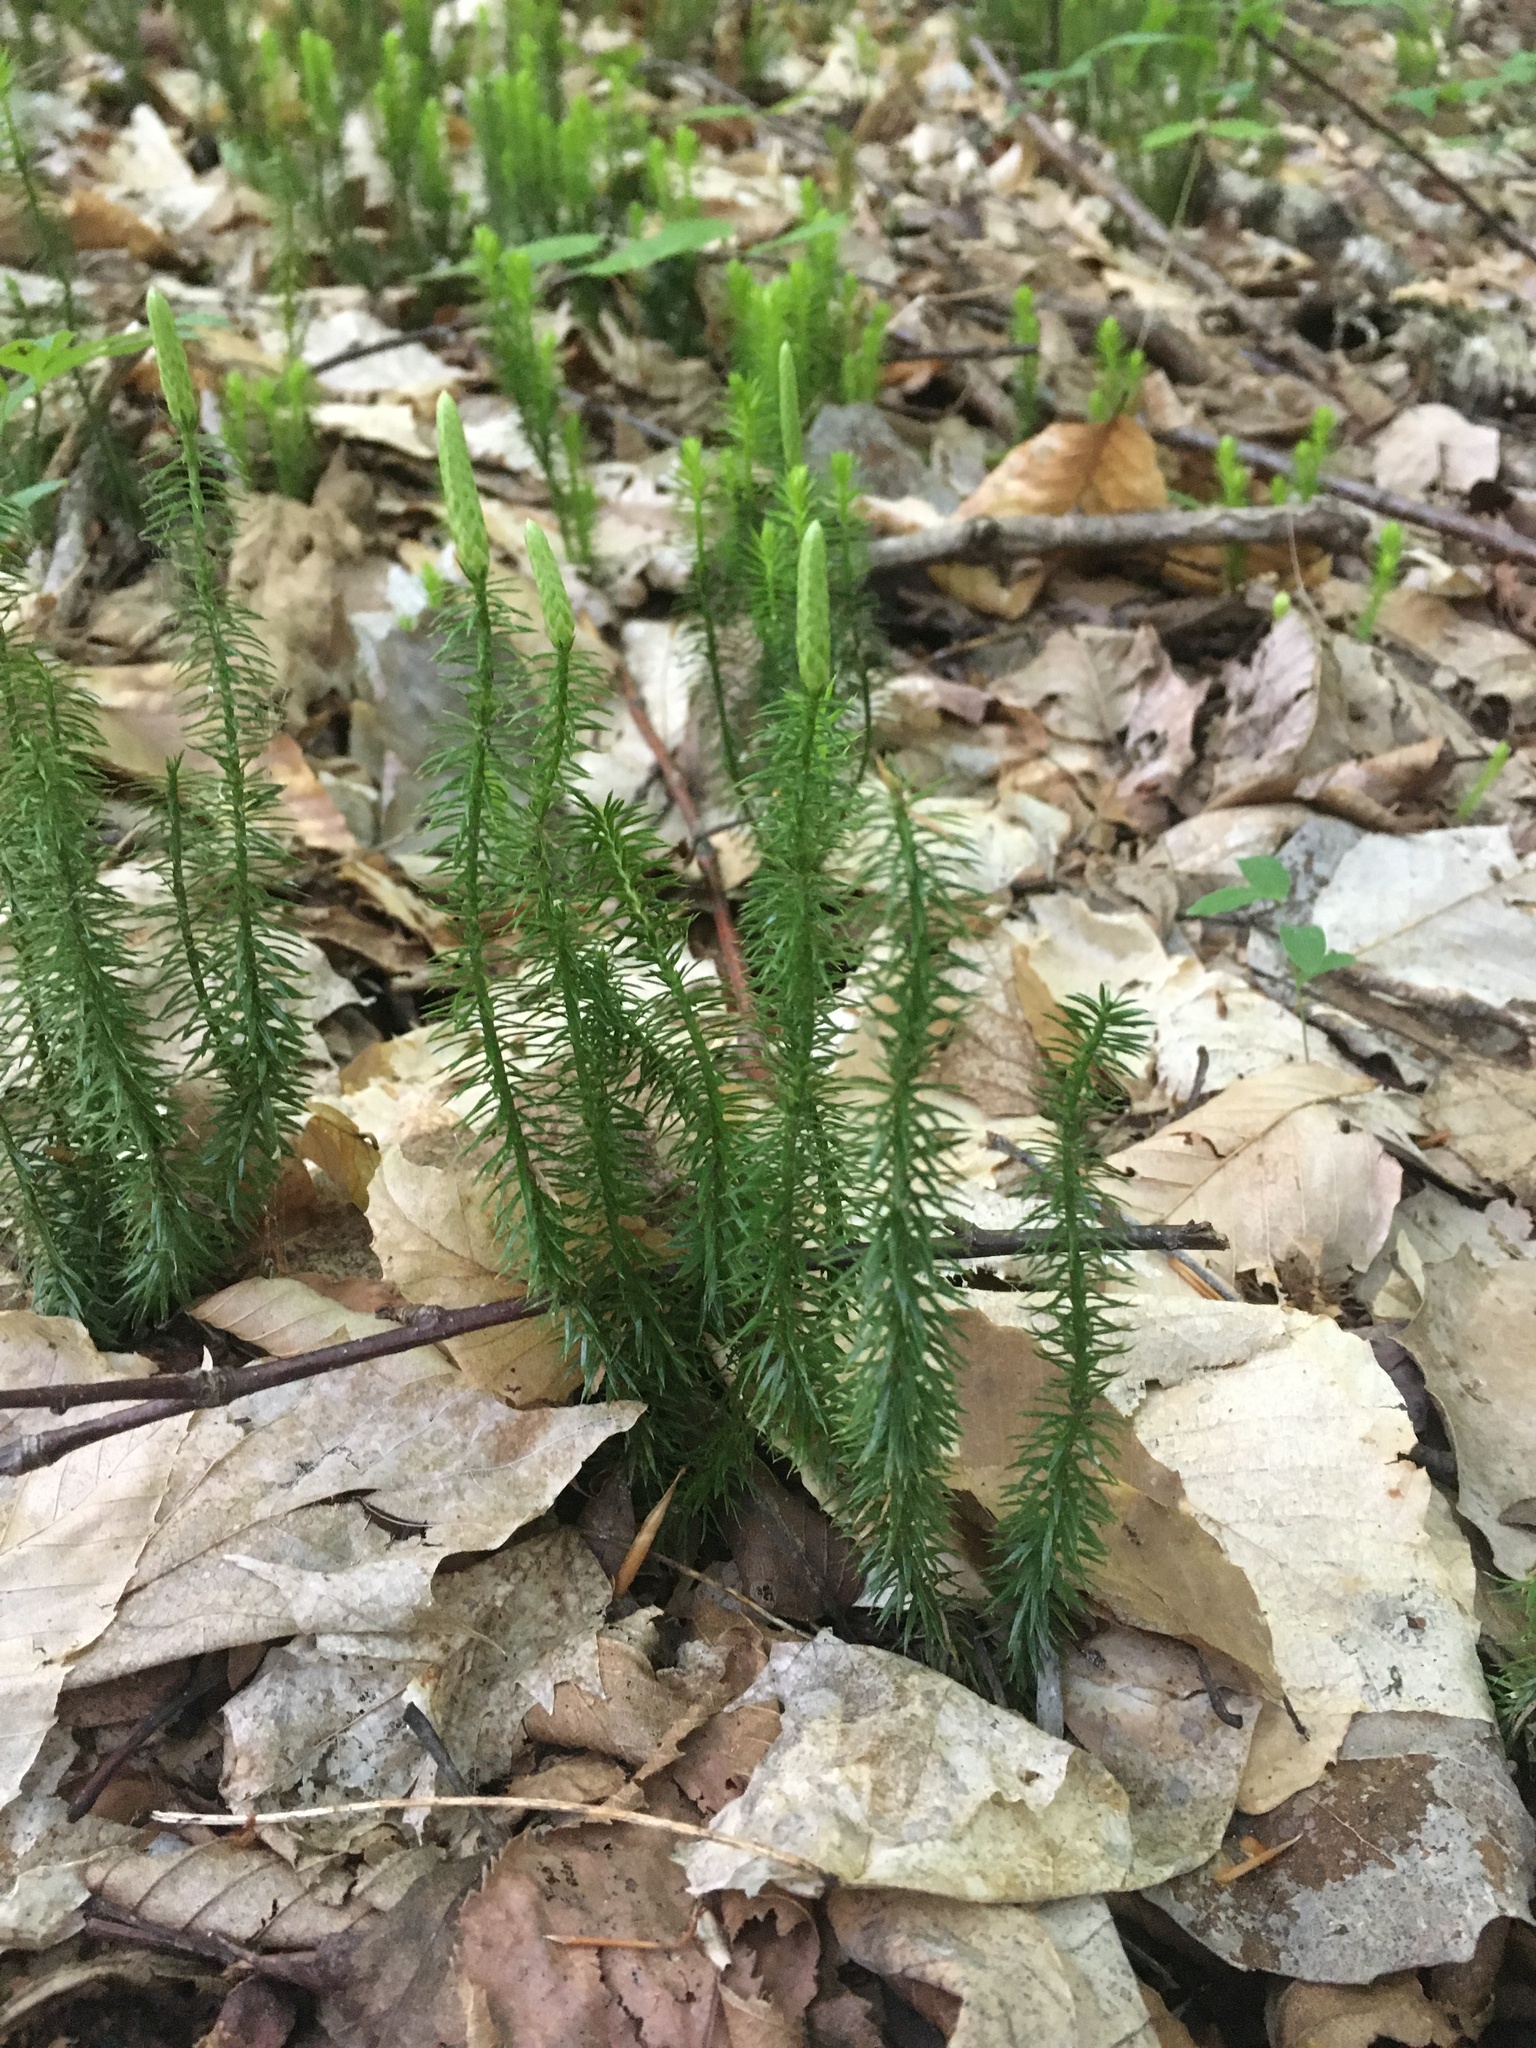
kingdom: Plantae
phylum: Tracheophyta
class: Lycopodiopsida
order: Lycopodiales
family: Lycopodiaceae
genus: Spinulum
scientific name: Spinulum annotinum
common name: Interrupted club-moss
